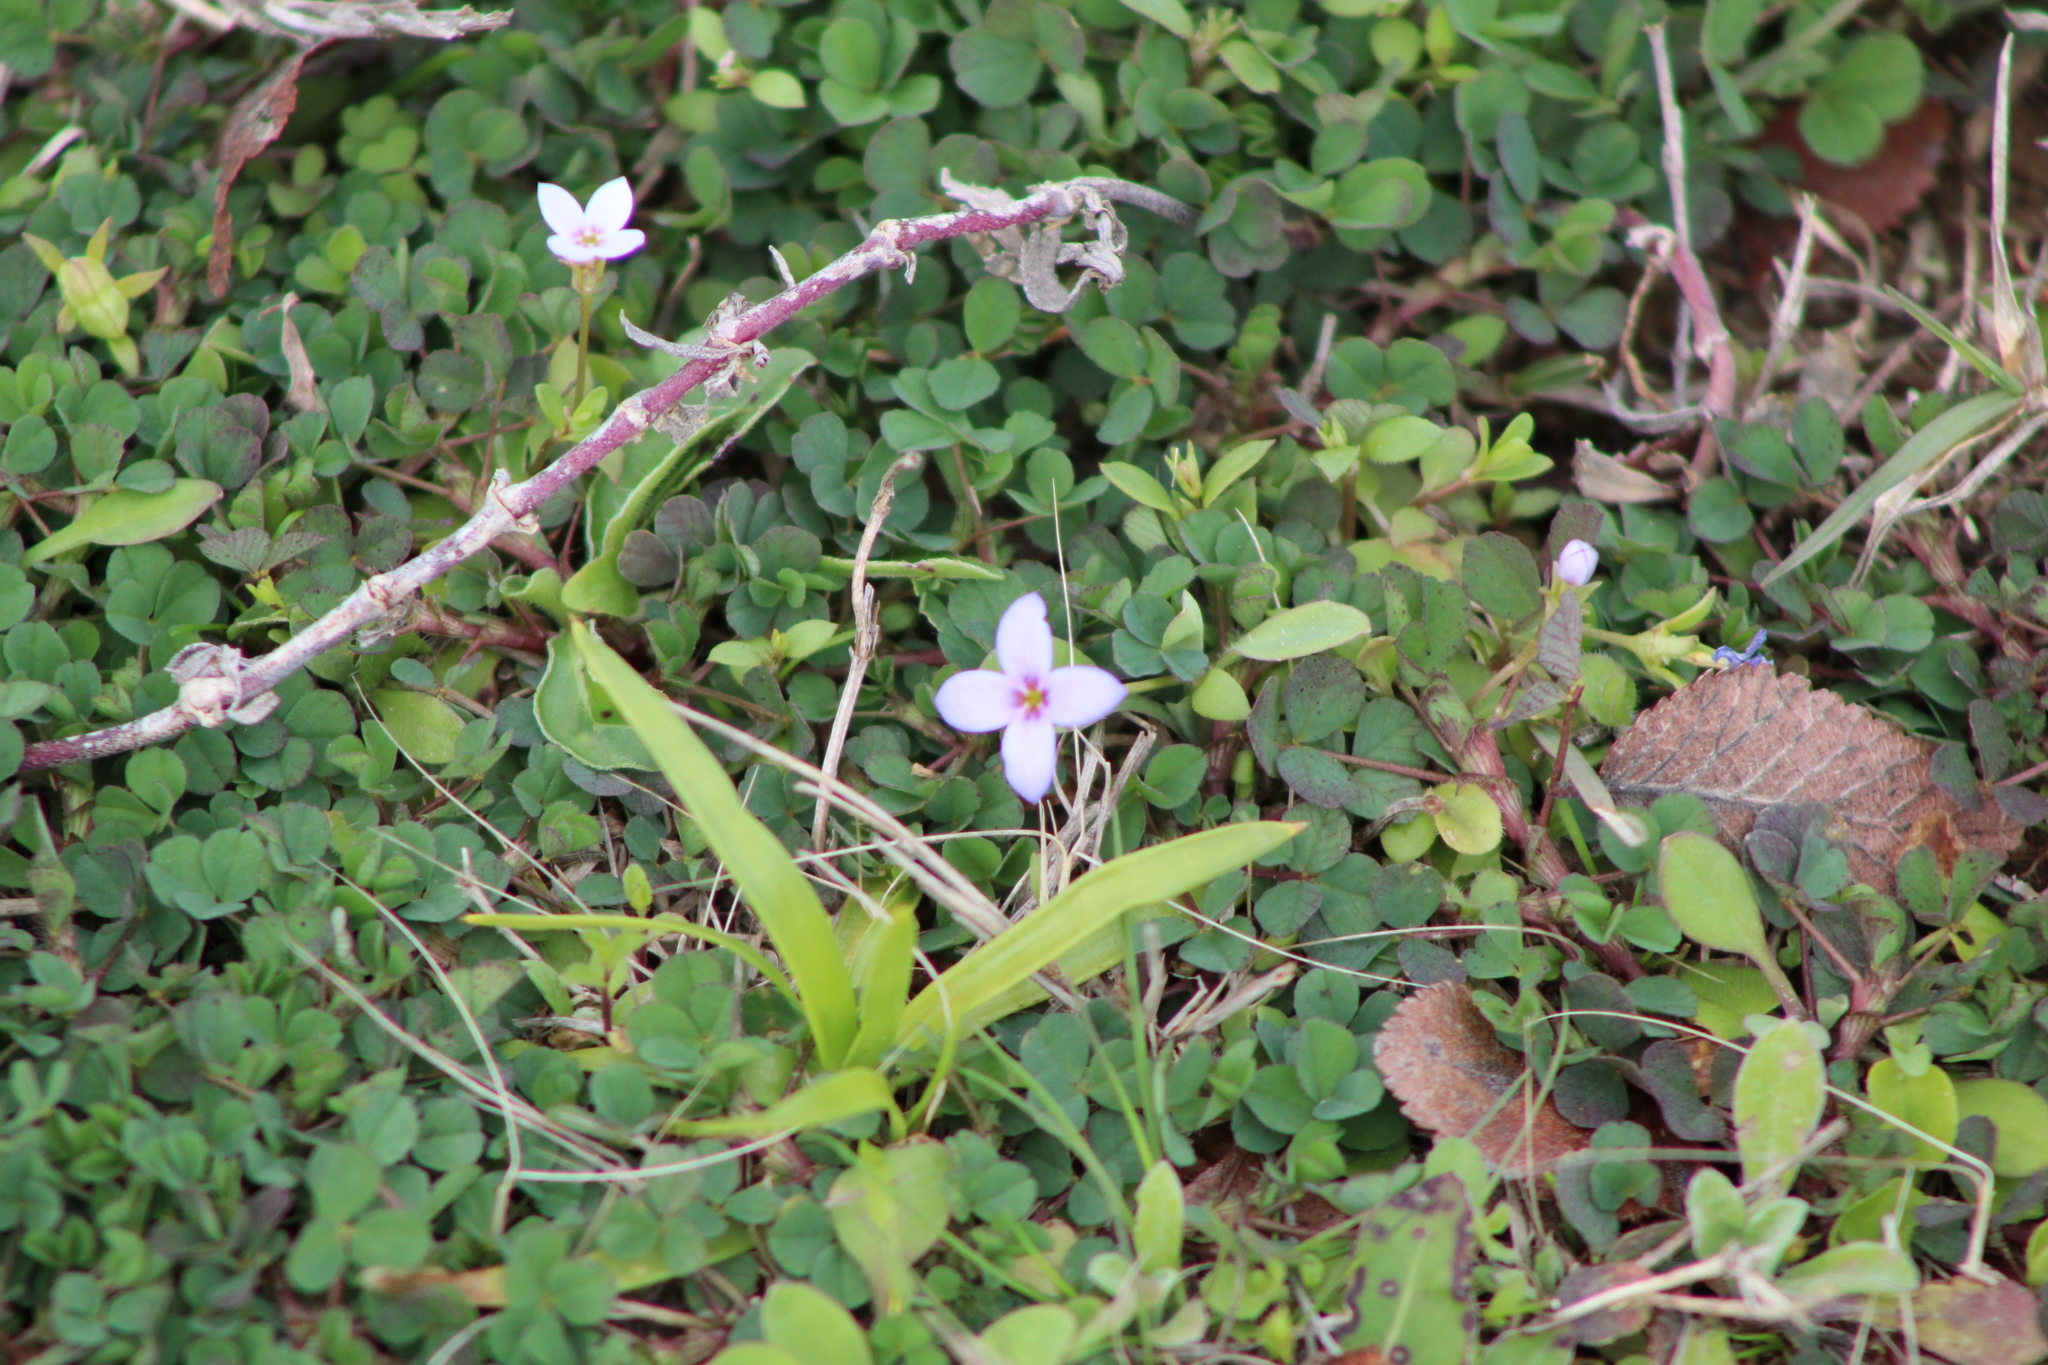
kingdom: Plantae
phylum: Tracheophyta
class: Magnoliopsida
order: Gentianales
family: Rubiaceae
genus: Houstonia
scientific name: Houstonia pusilla
